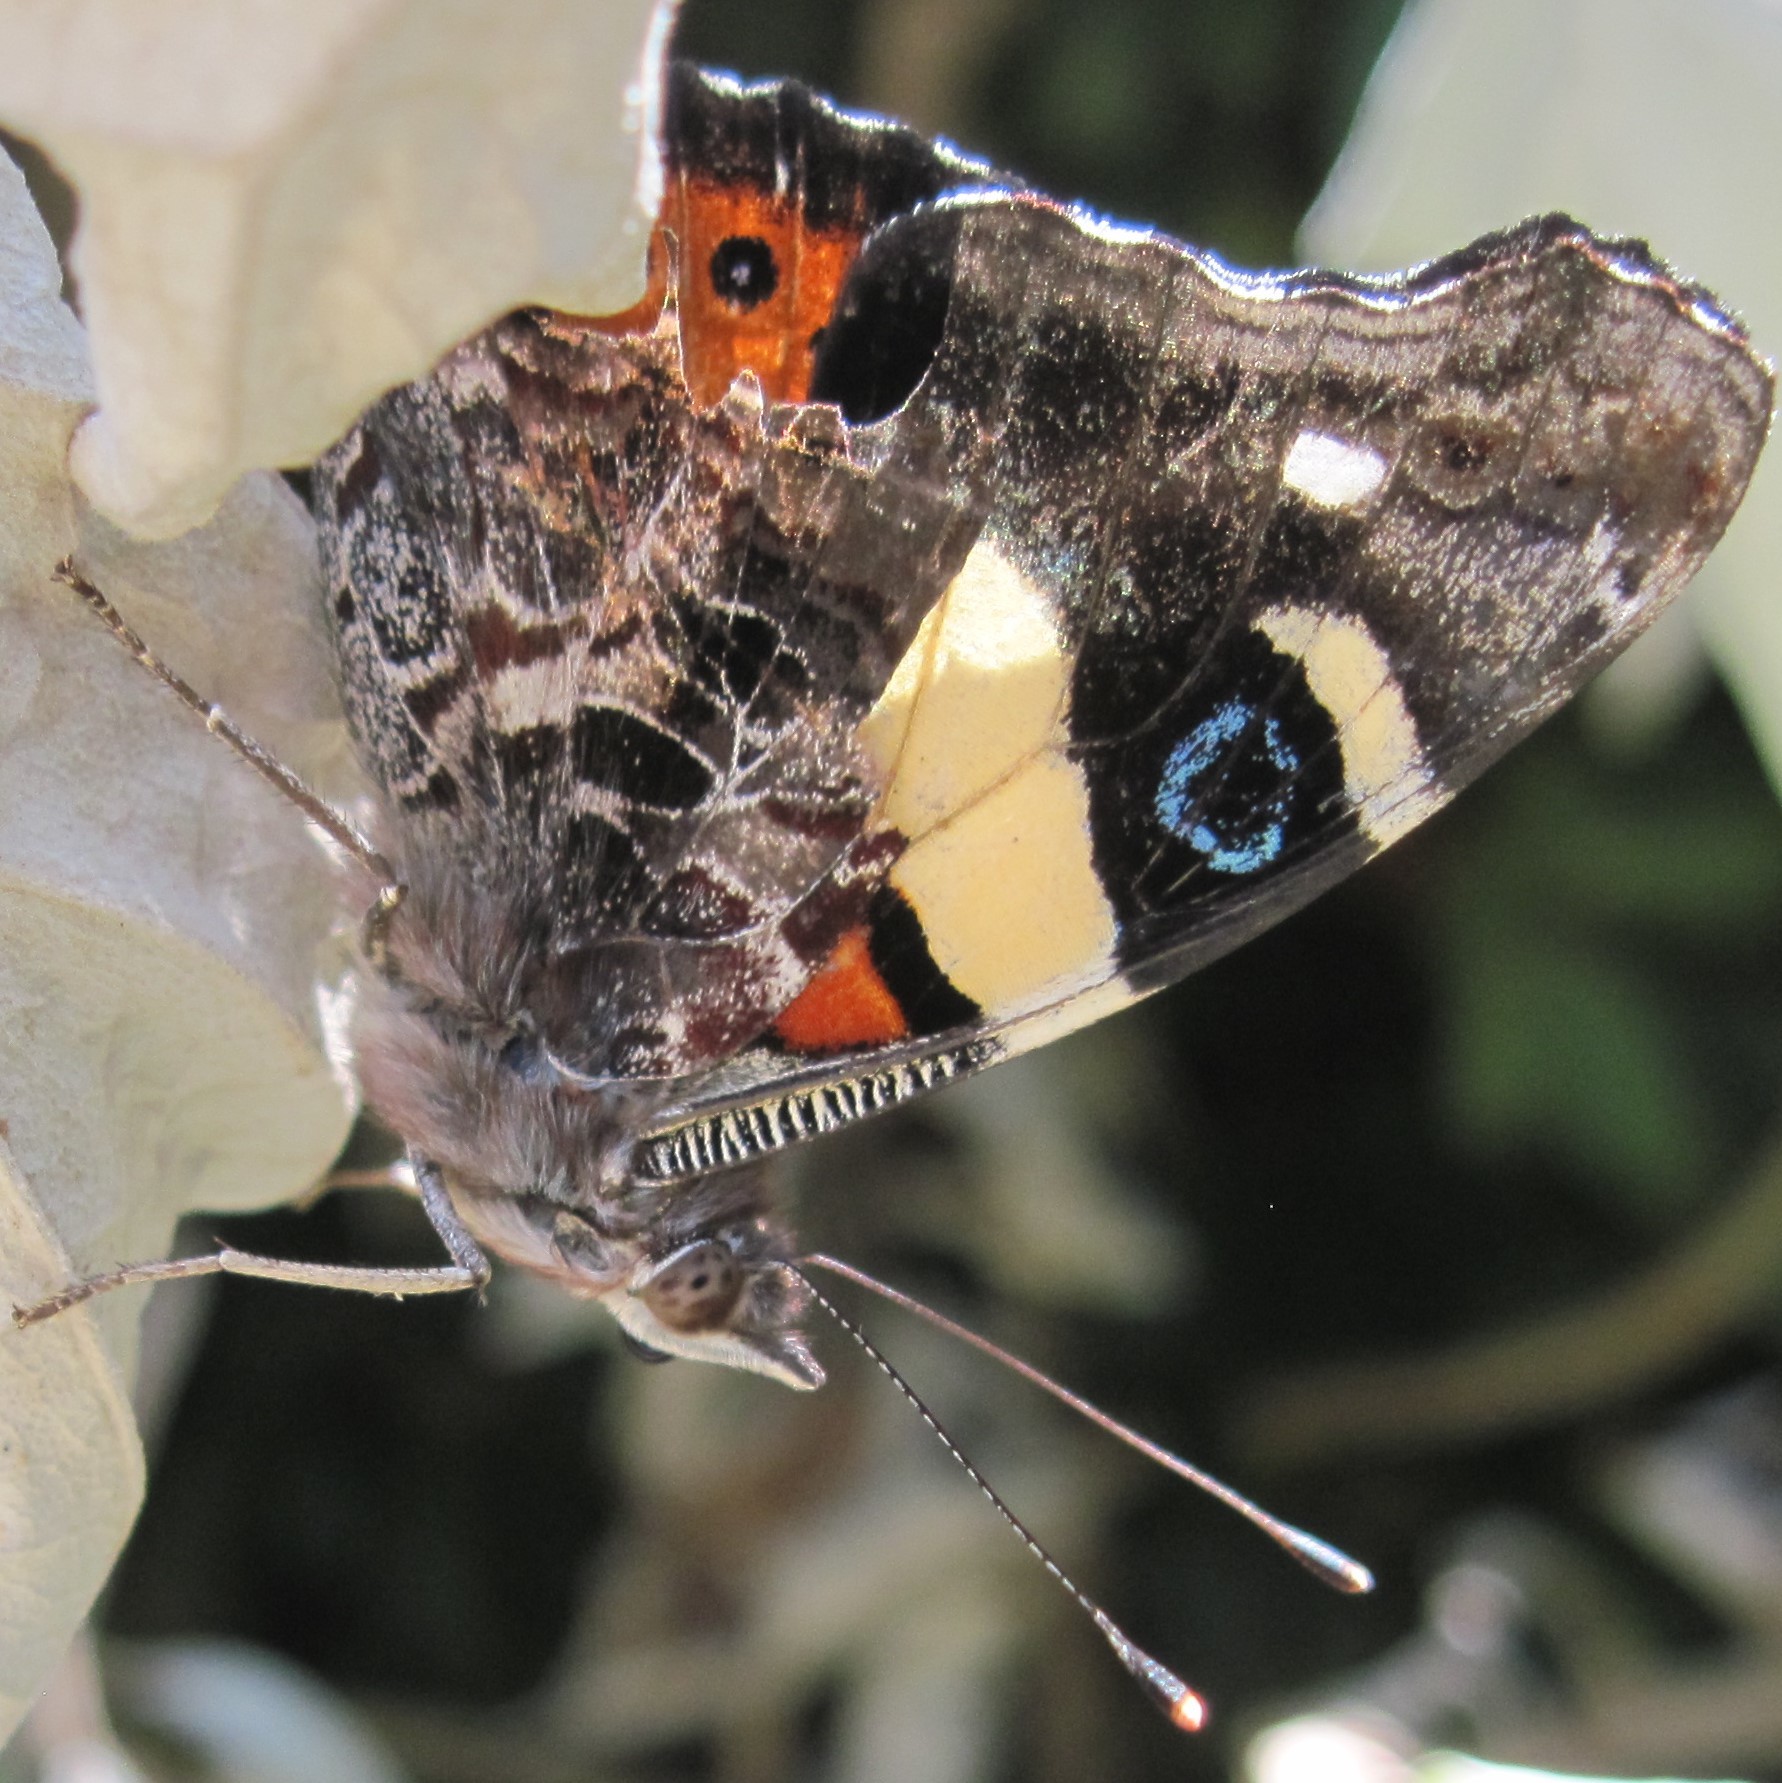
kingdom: Animalia
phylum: Arthropoda
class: Insecta
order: Lepidoptera
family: Nymphalidae
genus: Vanessa
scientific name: Vanessa itea
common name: Yellow admiral
